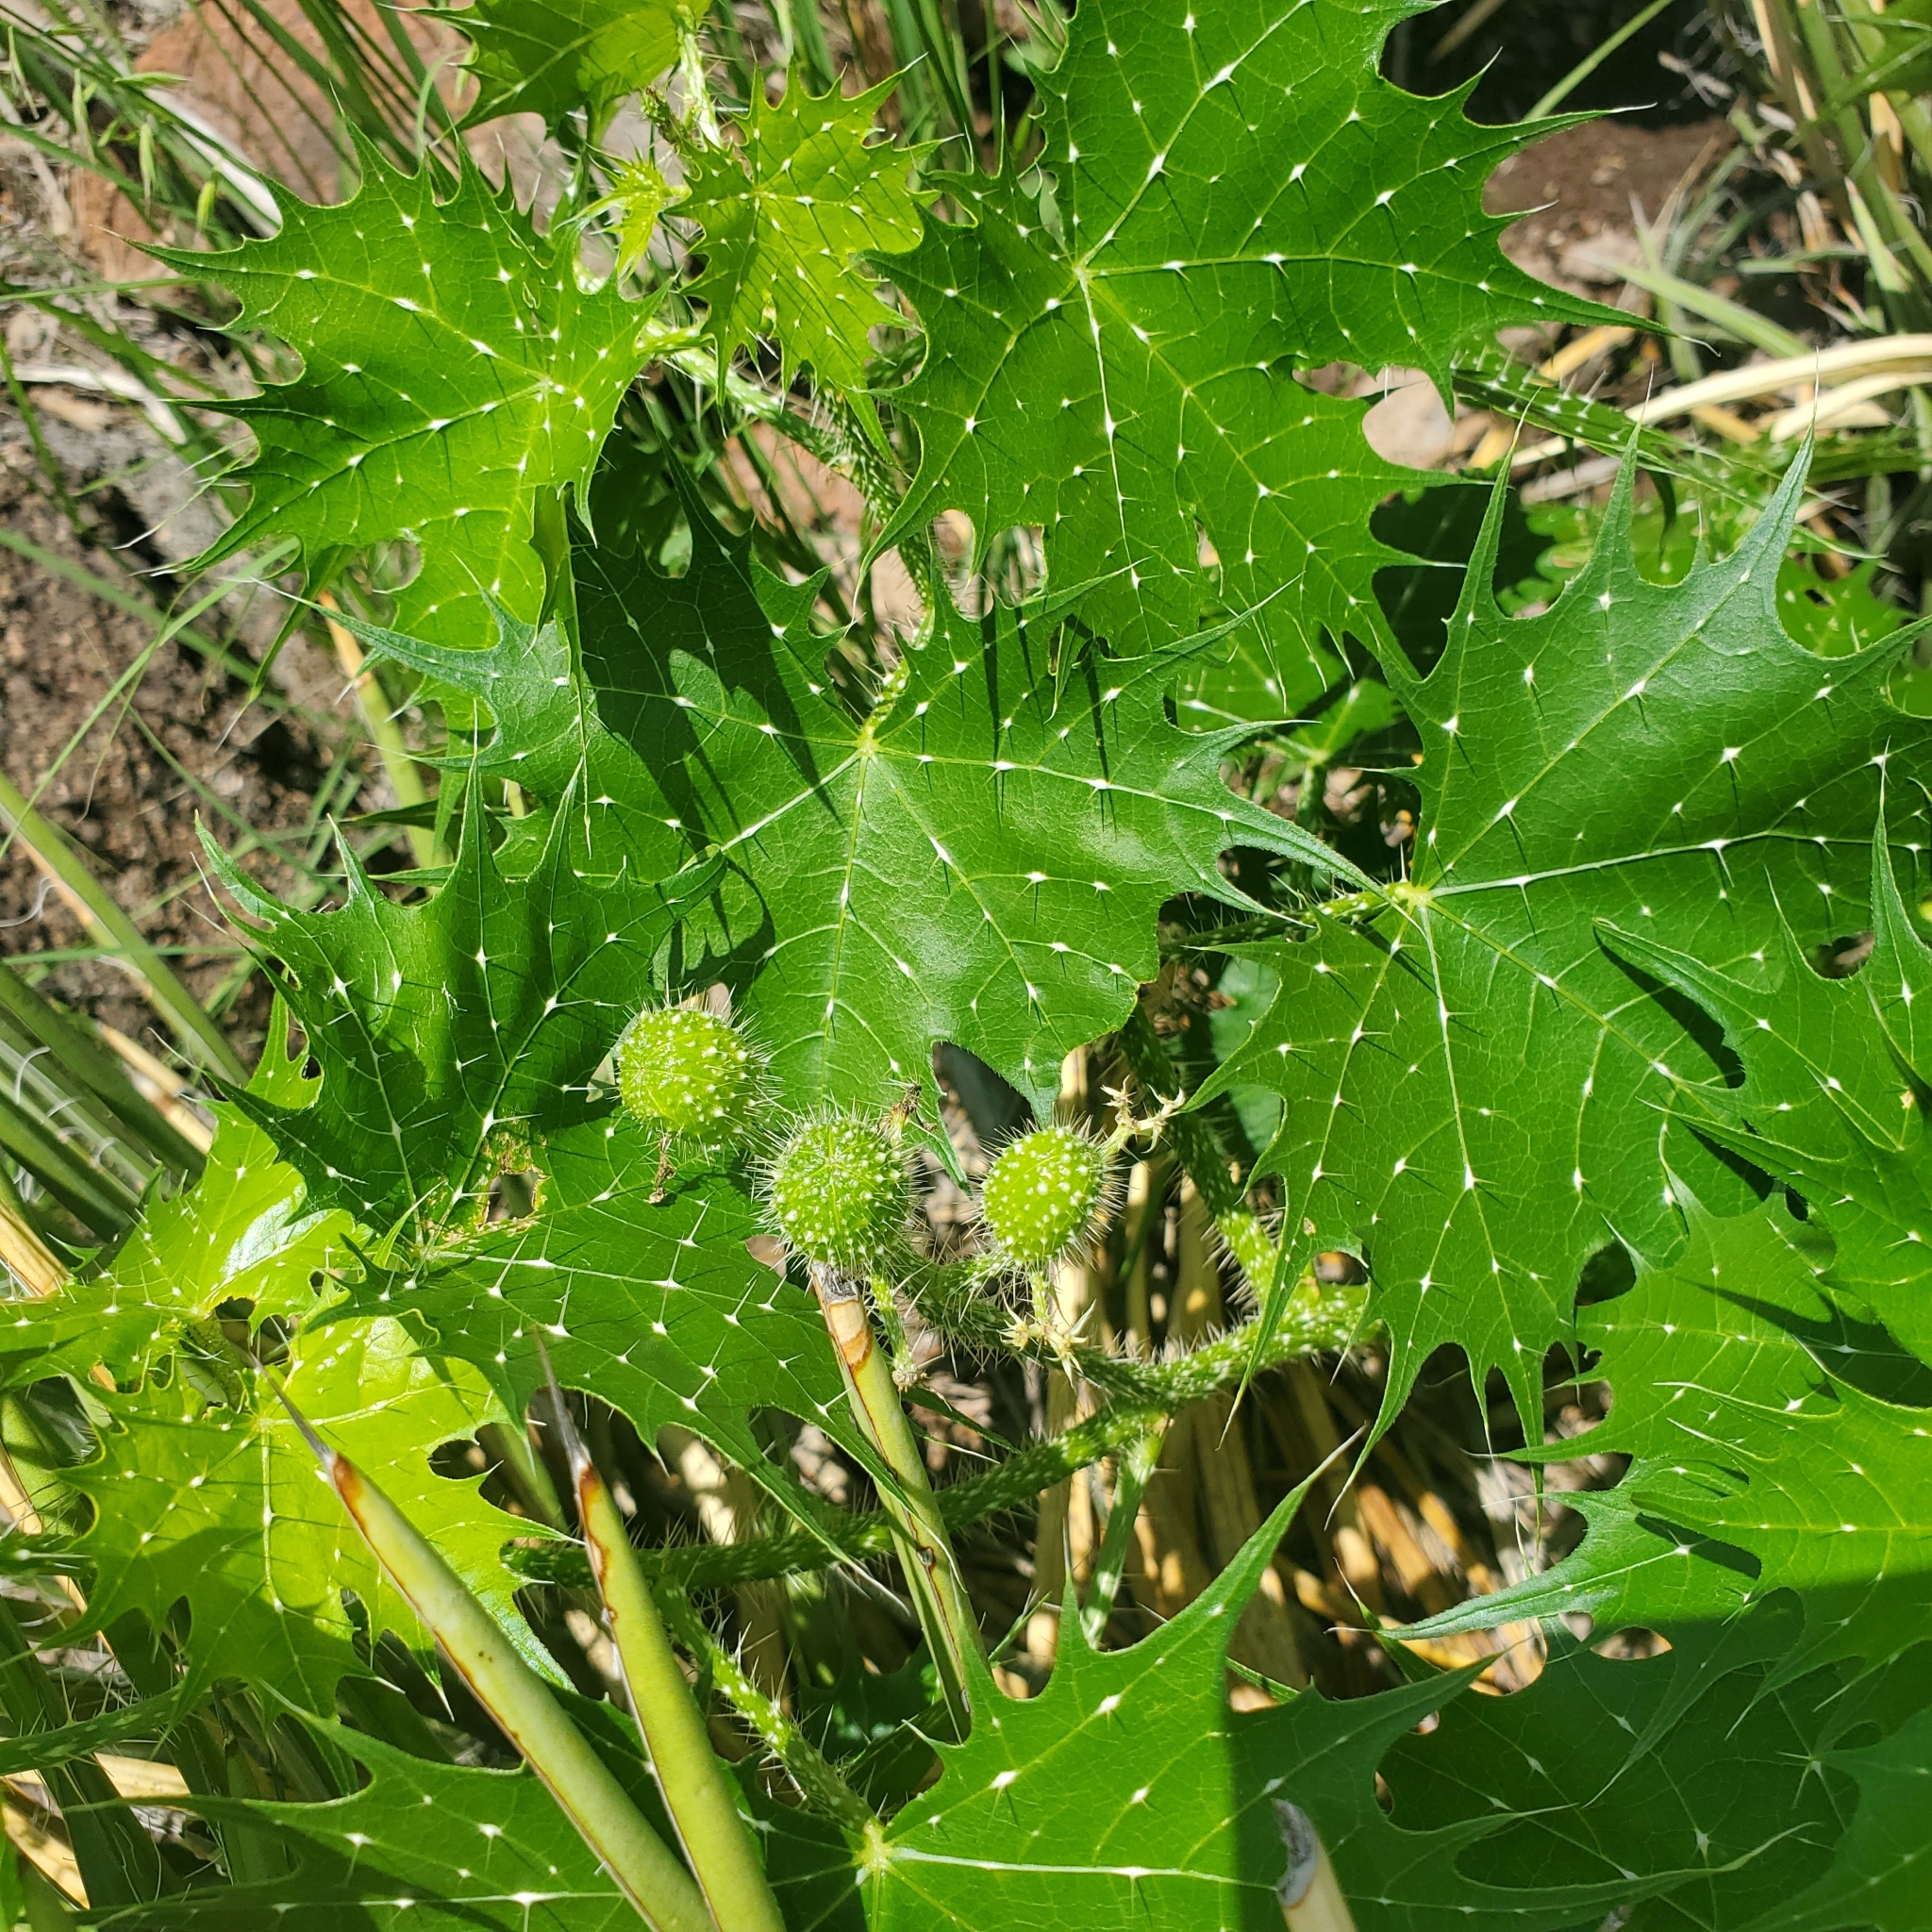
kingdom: Plantae
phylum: Tracheophyta
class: Magnoliopsida
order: Malpighiales
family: Euphorbiaceae
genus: Cnidoscolus
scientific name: Cnidoscolus angustidens
